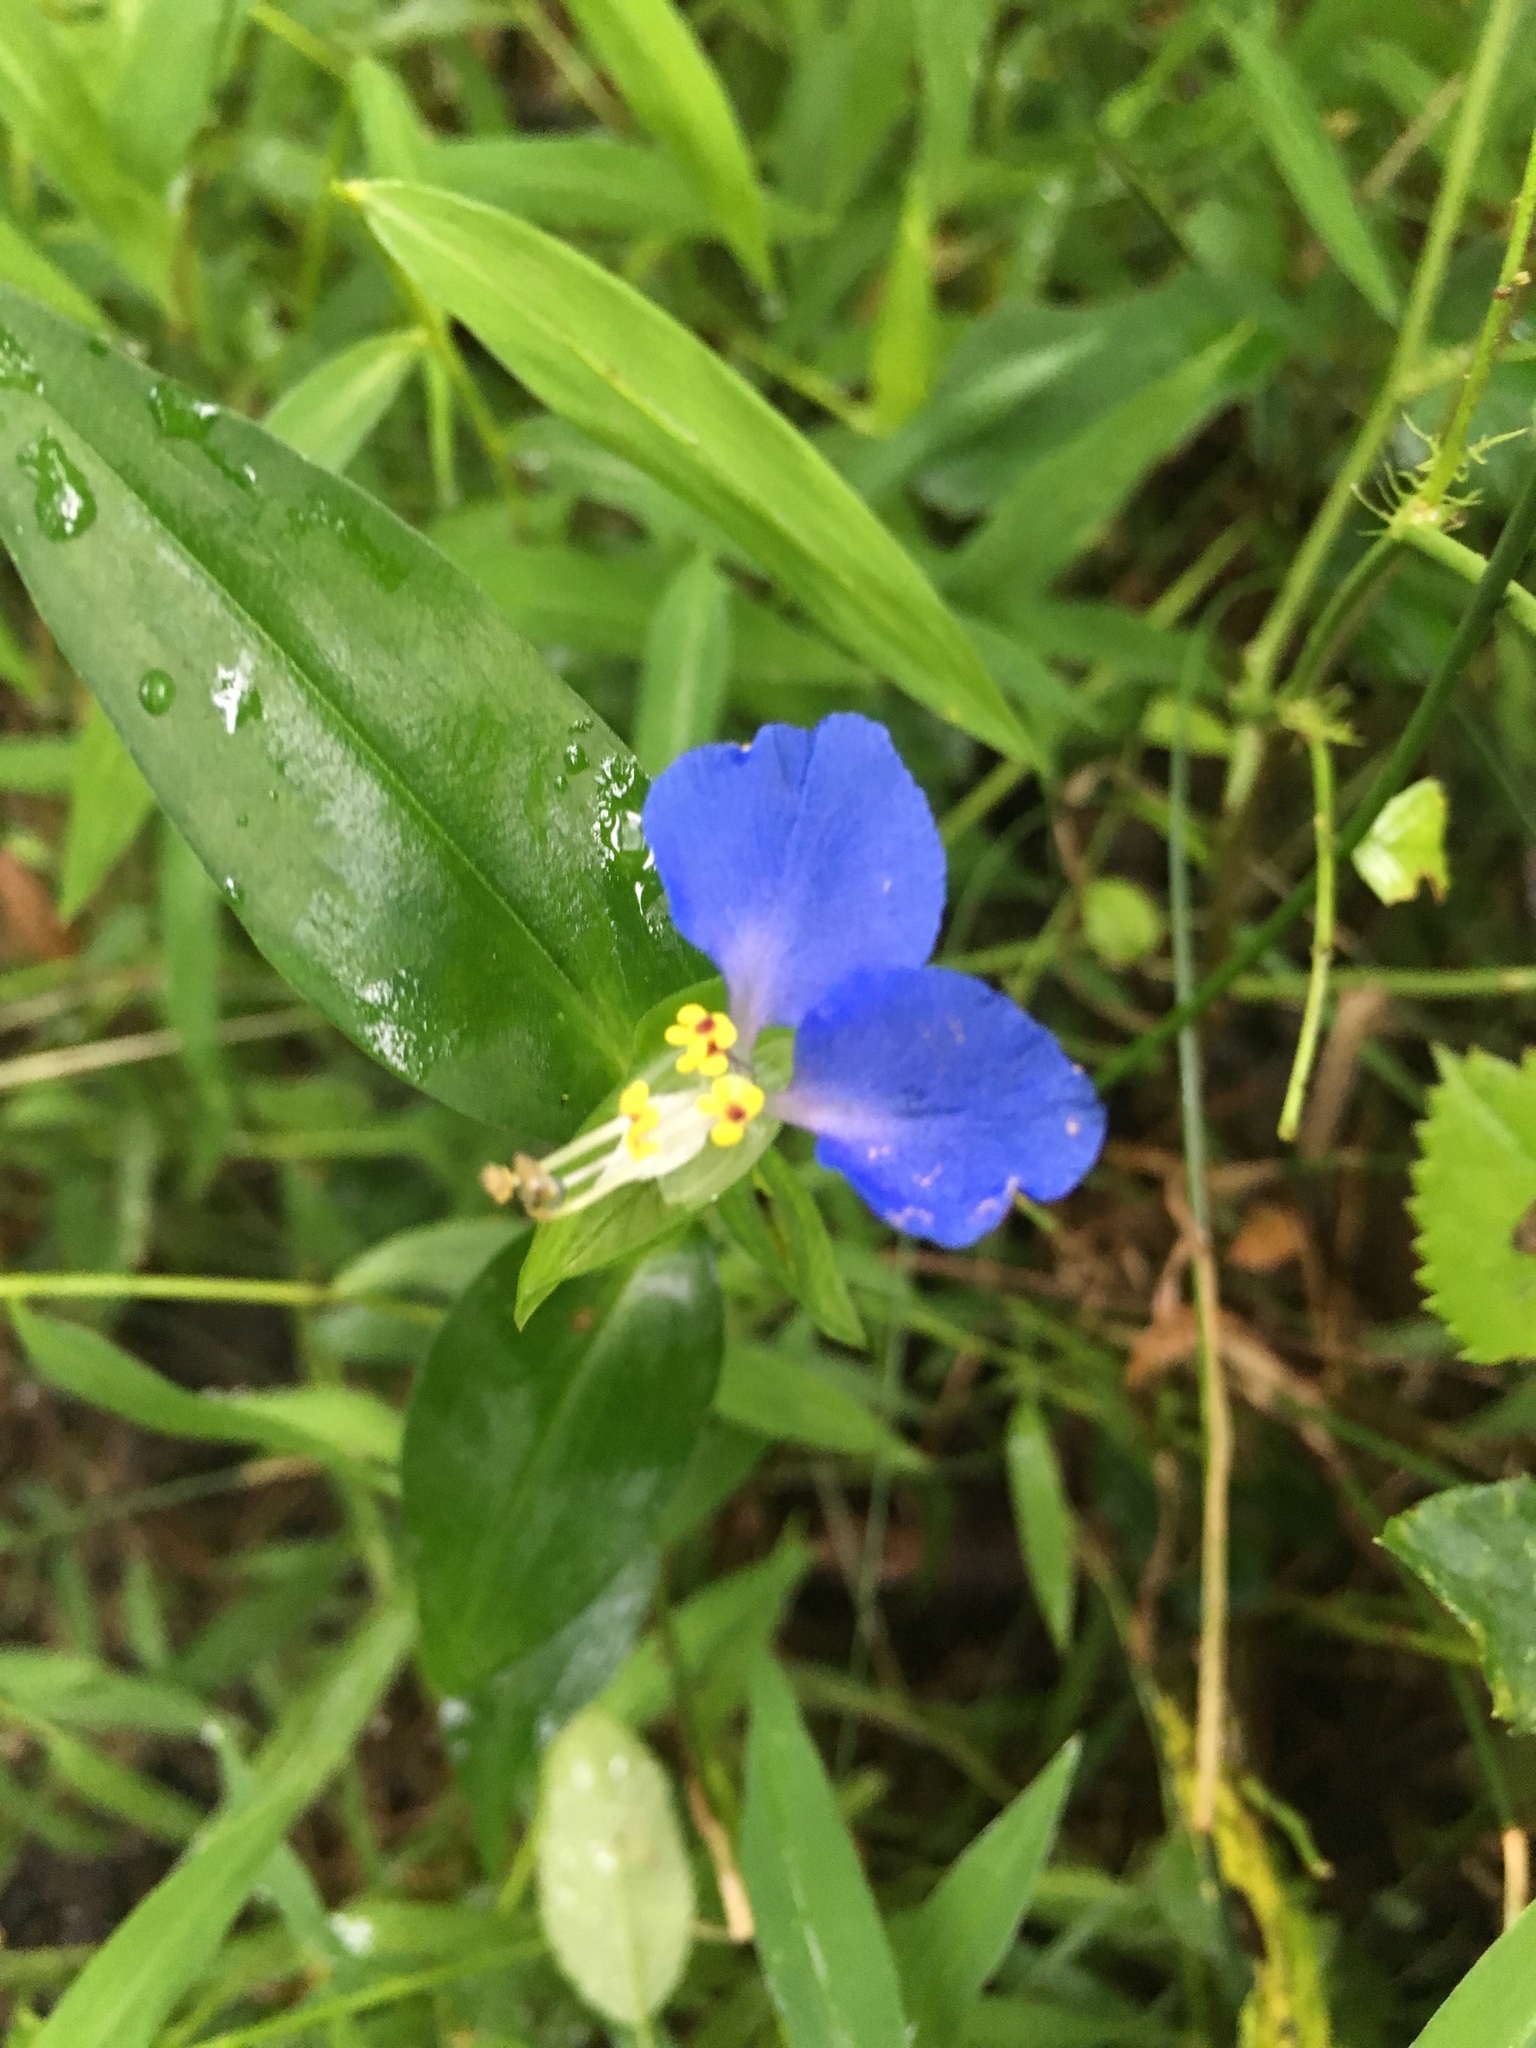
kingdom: Plantae
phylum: Tracheophyta
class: Liliopsida
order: Commelinales
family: Commelinaceae
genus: Commelina
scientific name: Commelina communis
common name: Asiatic dayflower
